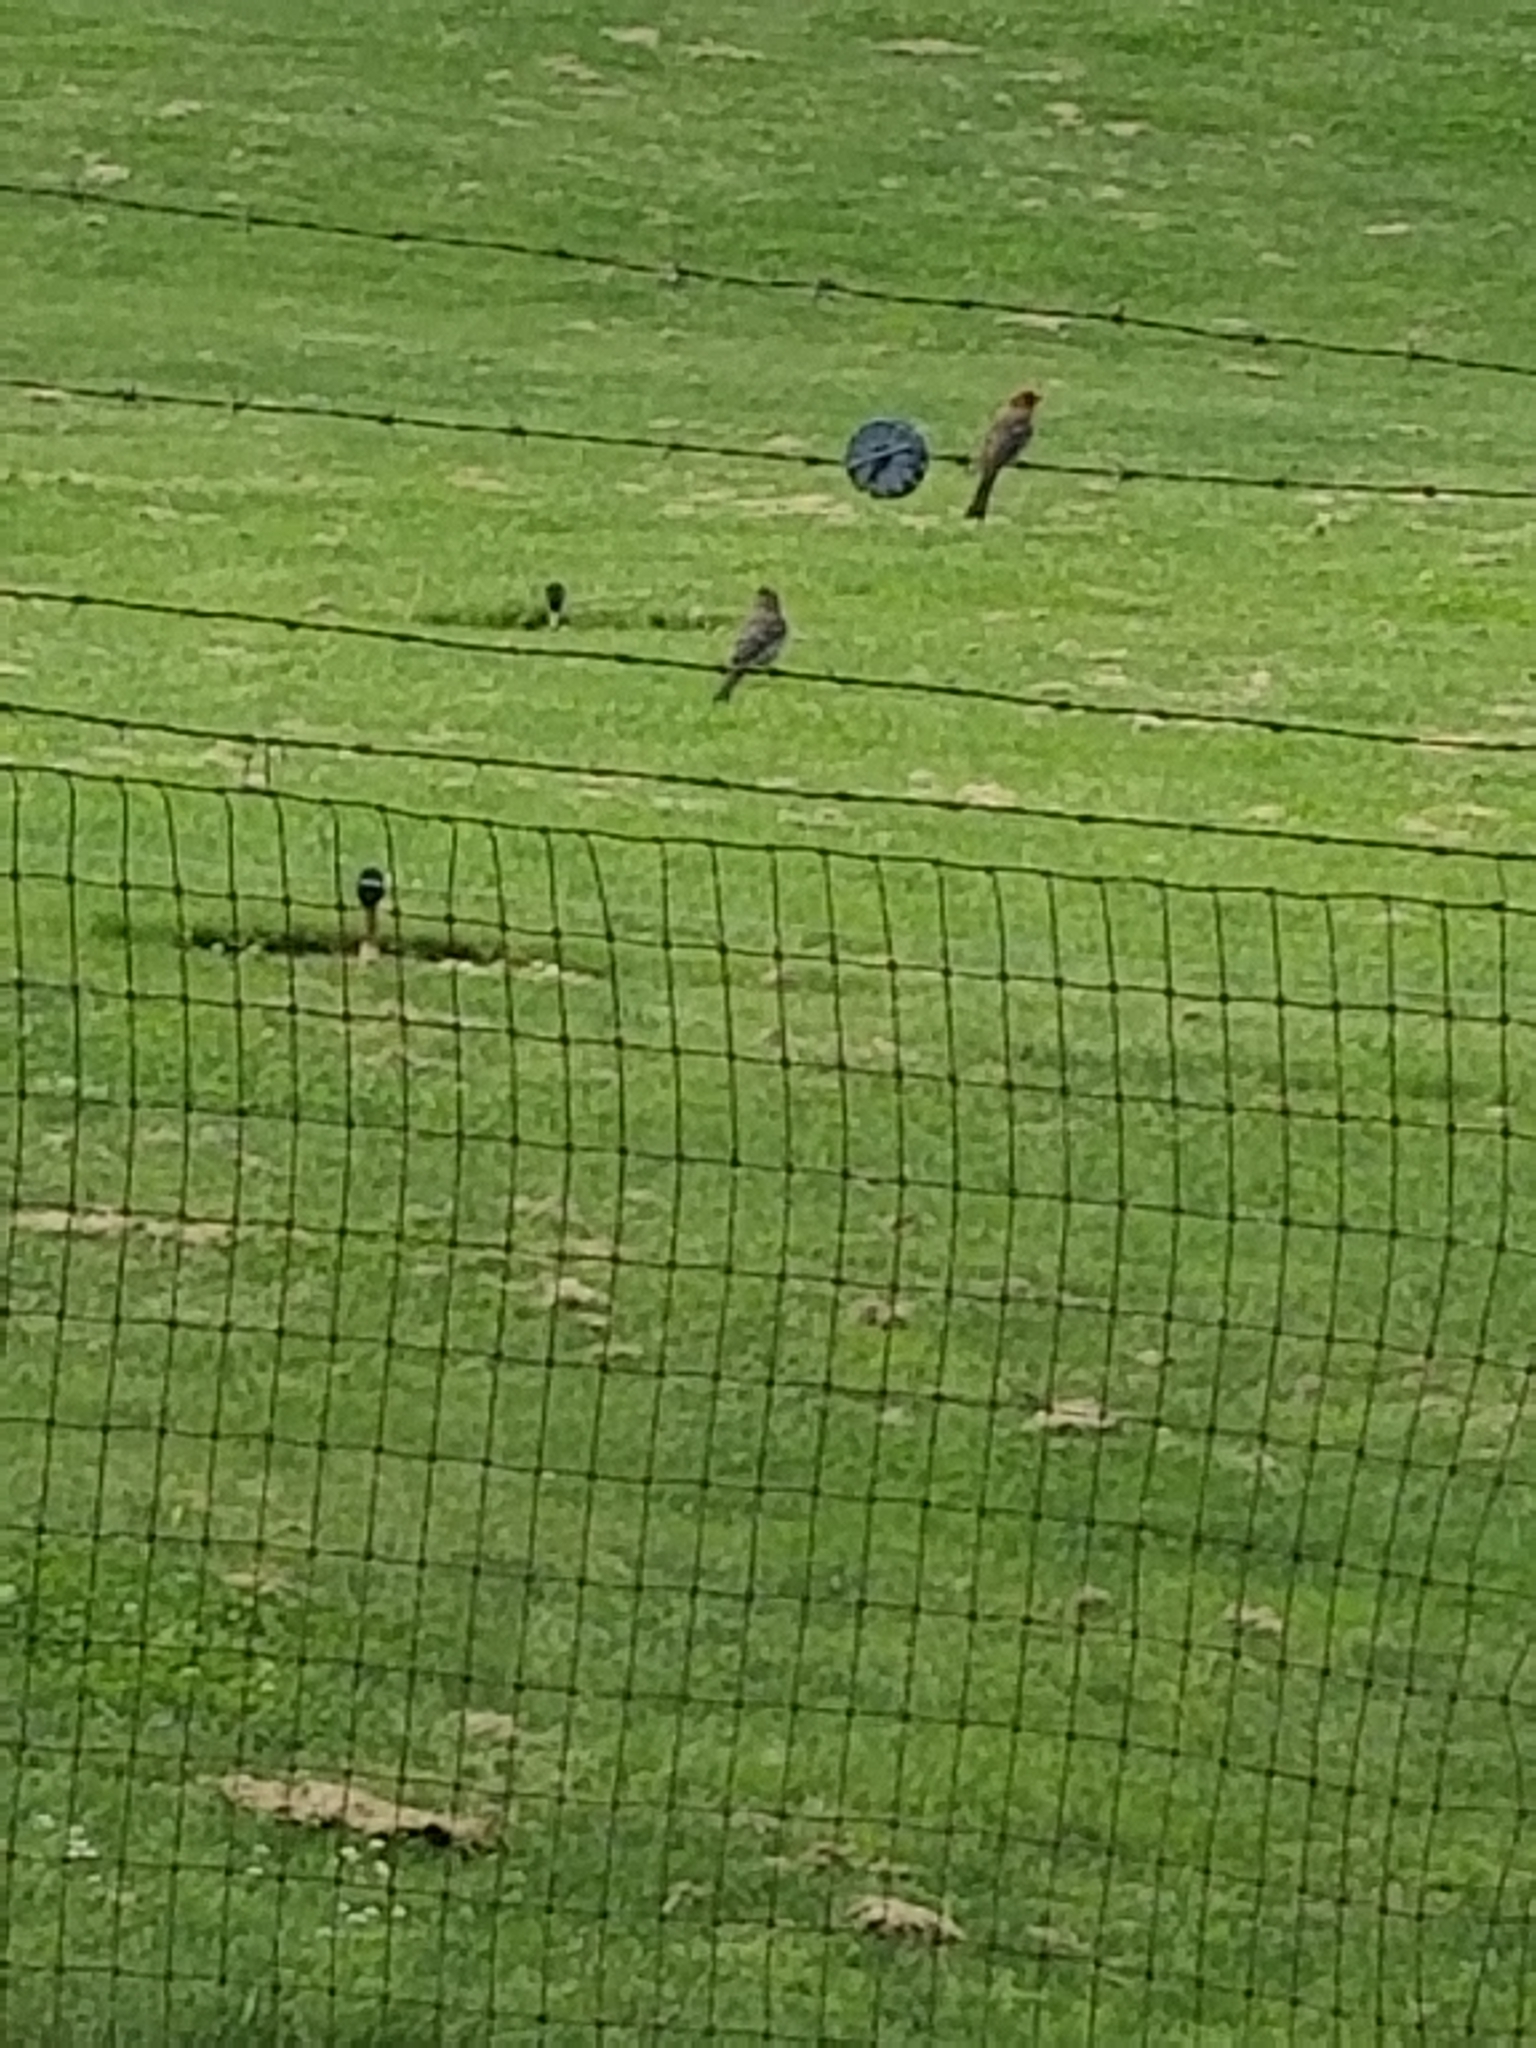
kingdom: Animalia
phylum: Chordata
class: Aves
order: Passeriformes
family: Fringillidae
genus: Haemorhous
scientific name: Haemorhous mexicanus
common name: House finch
